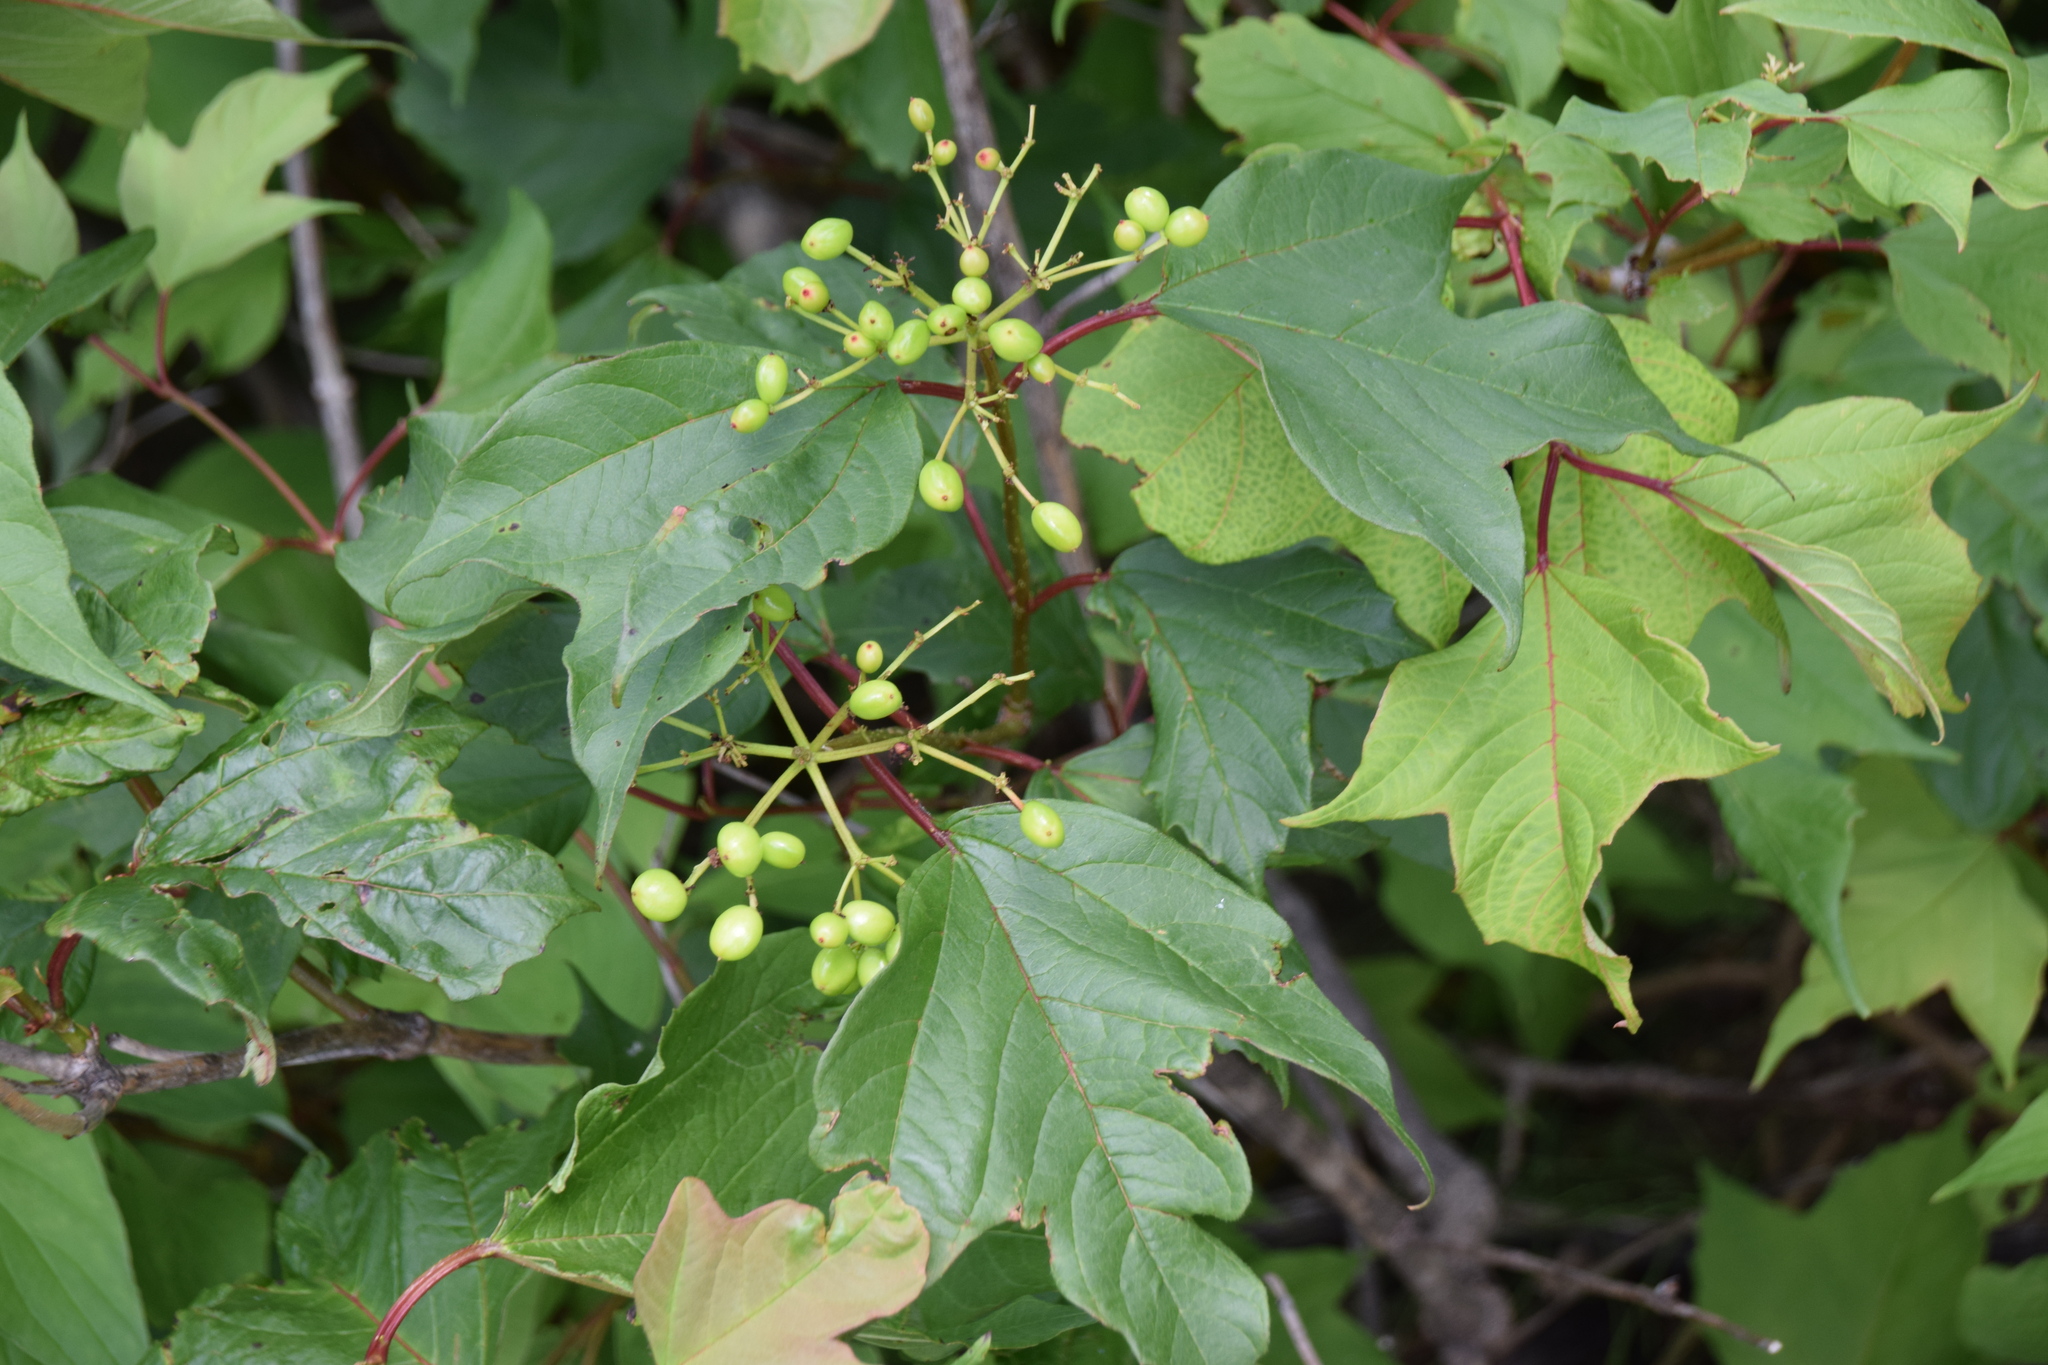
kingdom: Plantae
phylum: Tracheophyta
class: Magnoliopsida
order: Dipsacales
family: Viburnaceae
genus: Viburnum
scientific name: Viburnum opulus
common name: Guelder-rose
